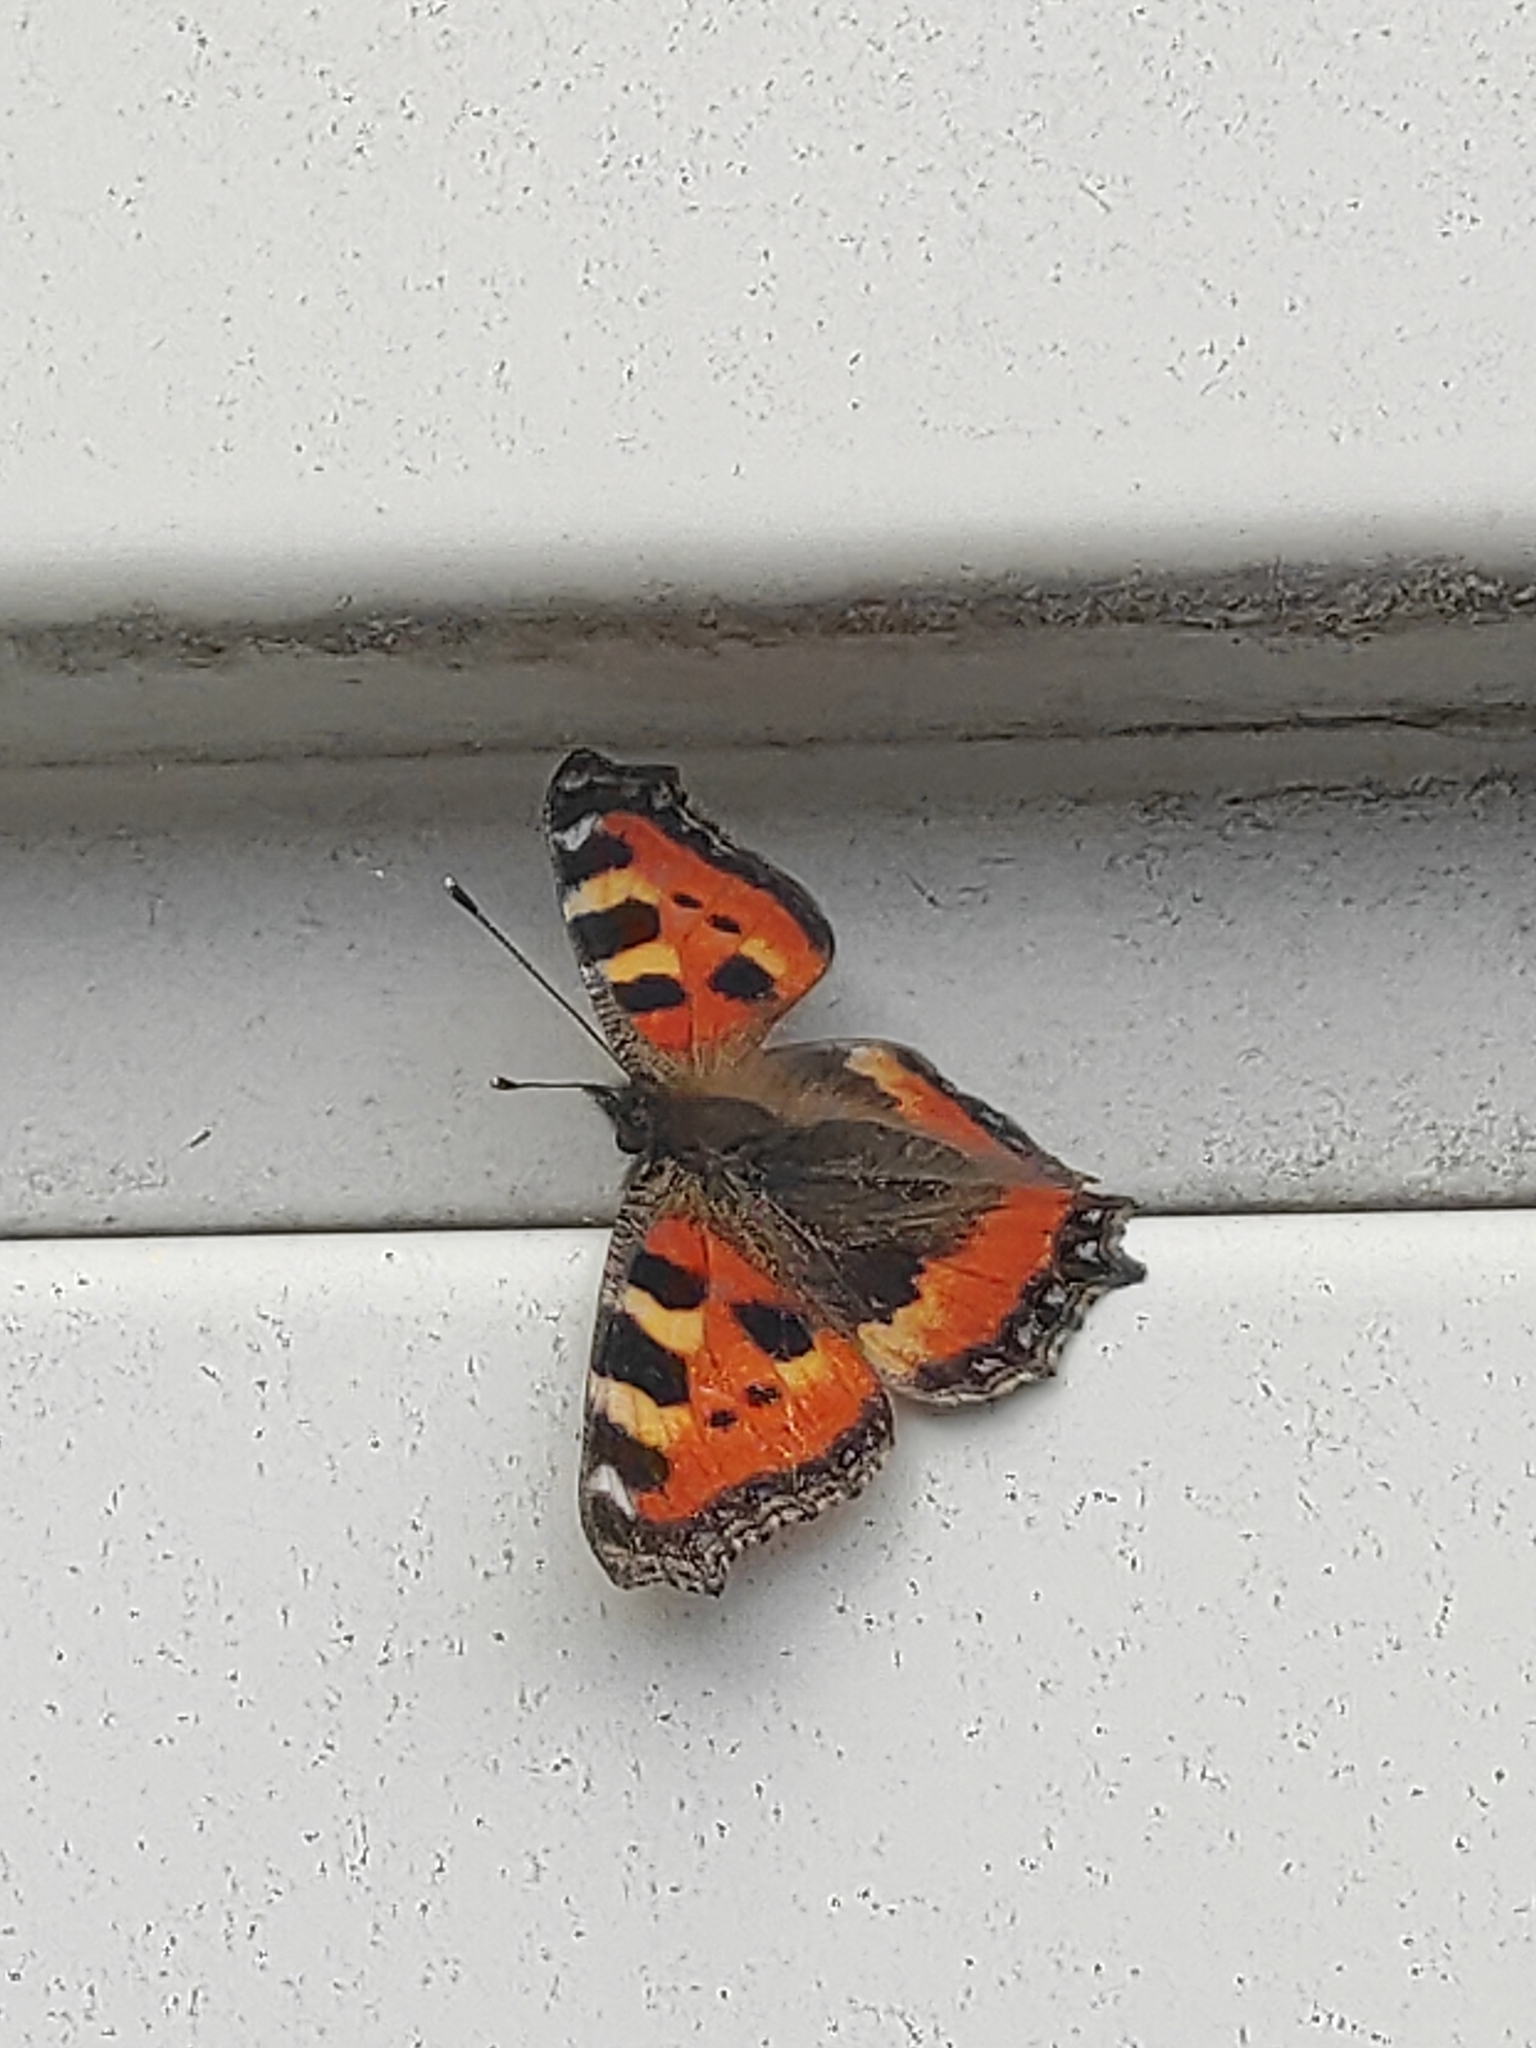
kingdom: Animalia
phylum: Arthropoda
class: Insecta
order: Lepidoptera
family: Nymphalidae
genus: Aglais
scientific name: Aglais urticae
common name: Small tortoiseshell
